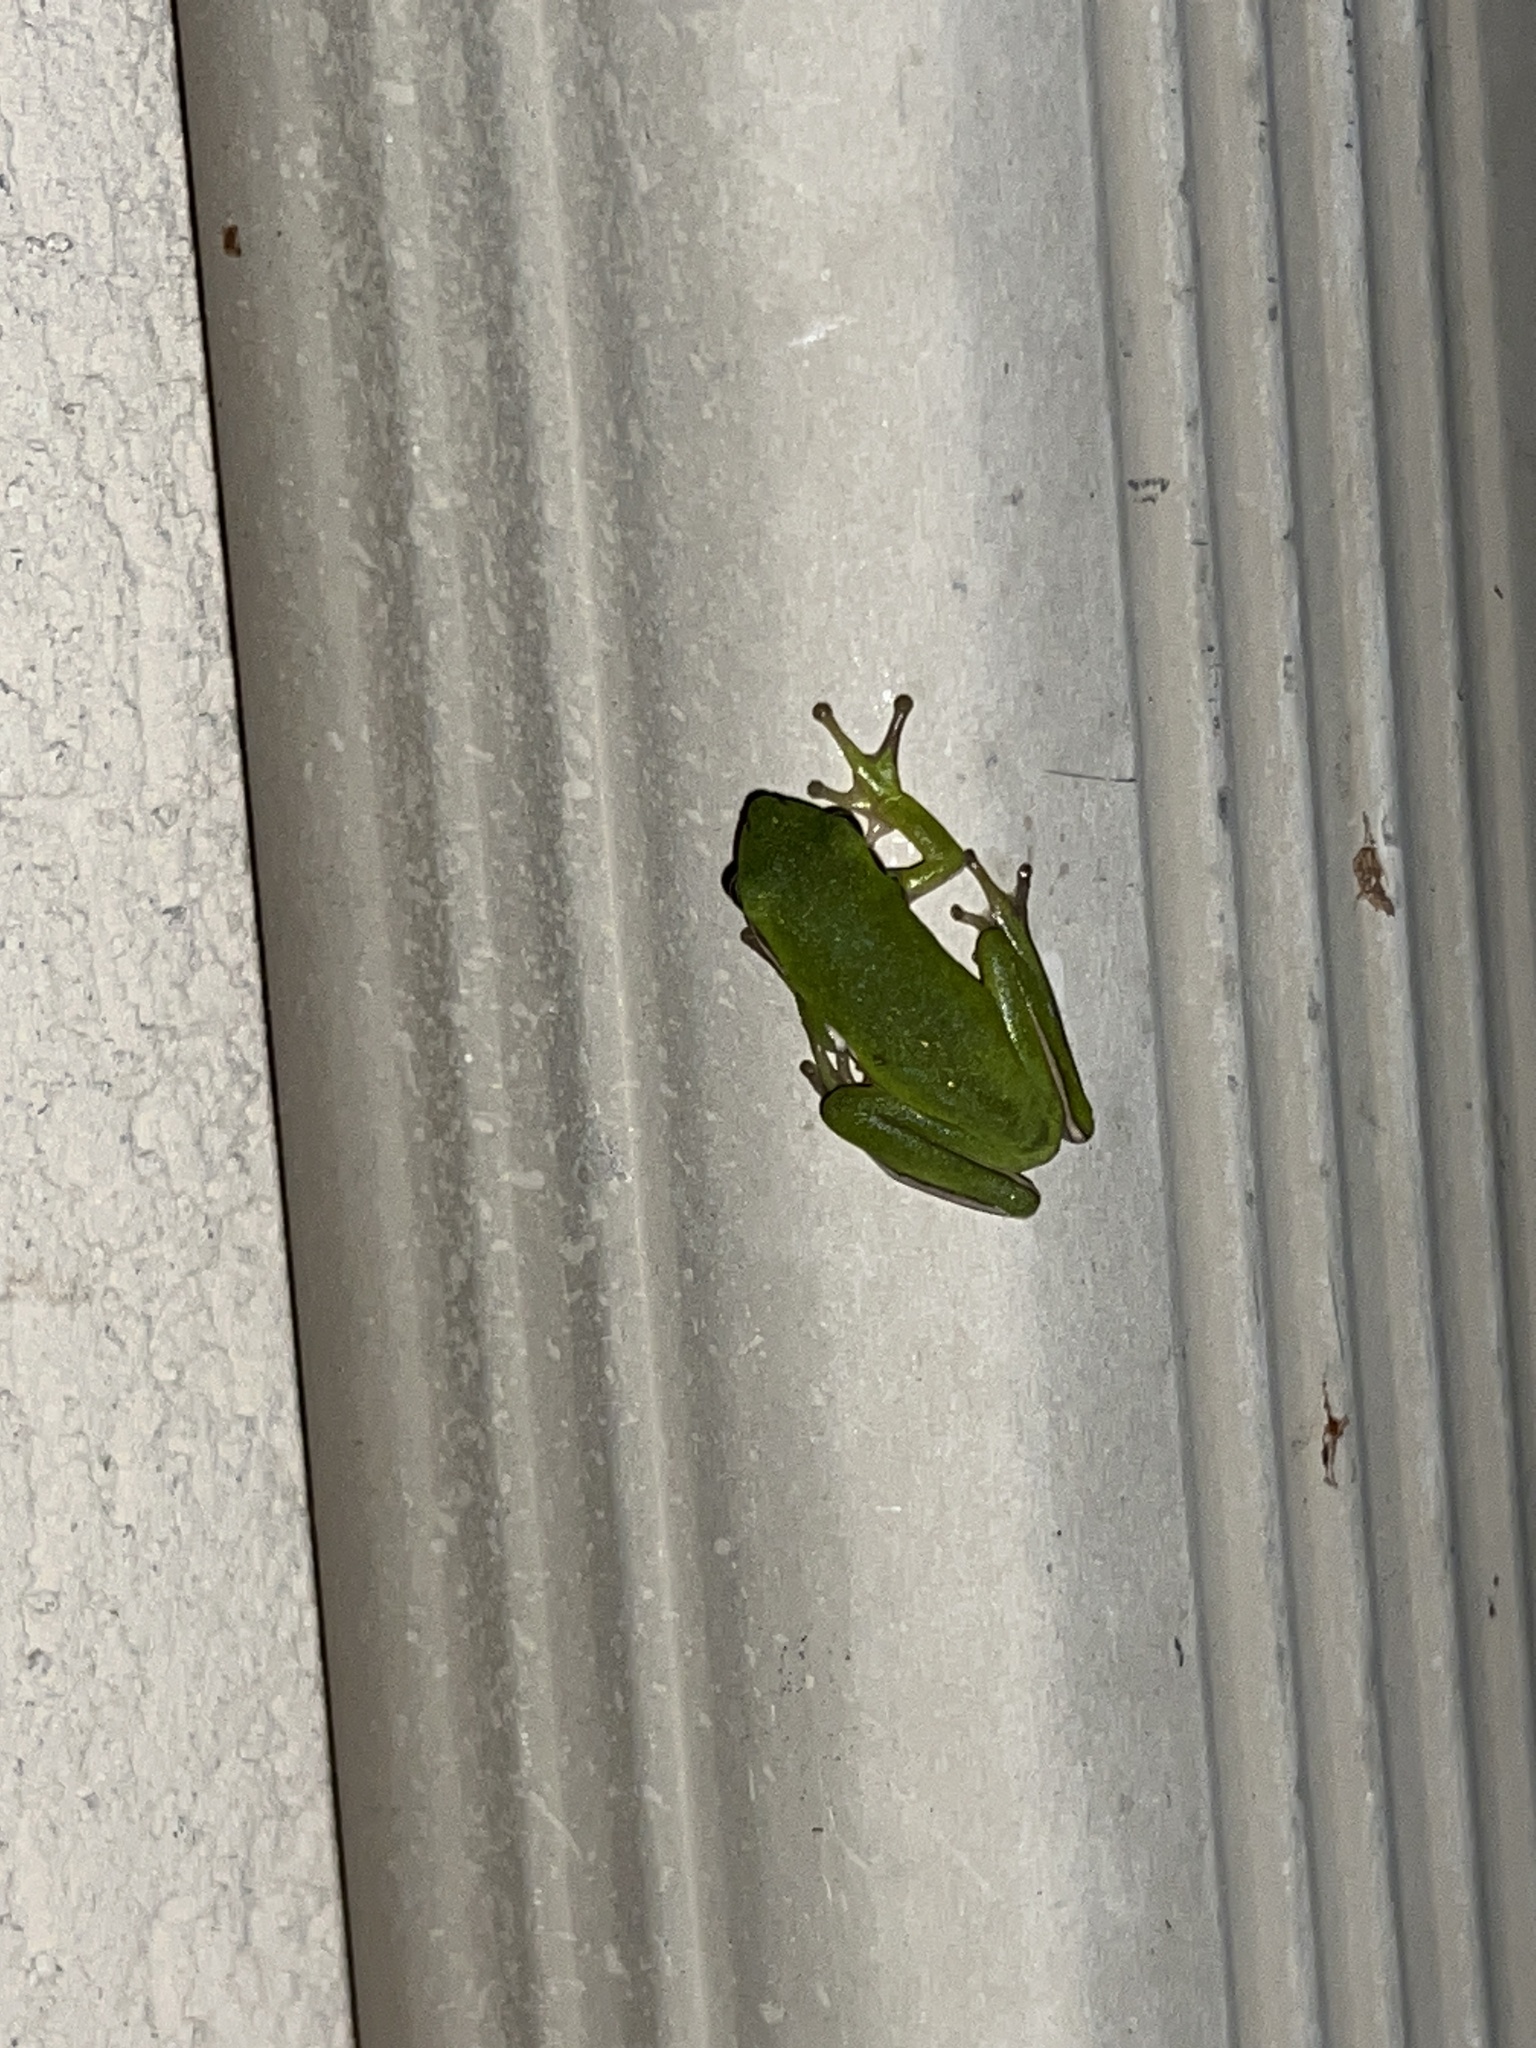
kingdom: Animalia
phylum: Chordata
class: Amphibia
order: Anura
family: Hylidae
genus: Dryophytes
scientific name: Dryophytes cinereus
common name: Green treefrog
